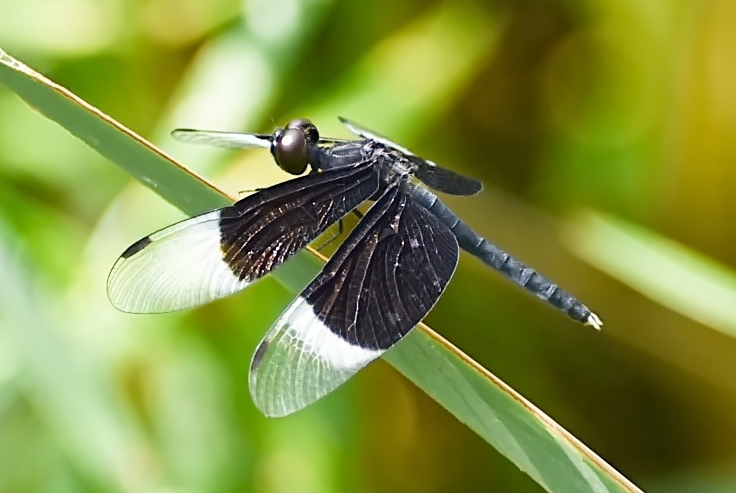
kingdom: Animalia
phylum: Arthropoda
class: Insecta
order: Odonata
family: Libellulidae
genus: Neurothemis
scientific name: Neurothemis tullia
